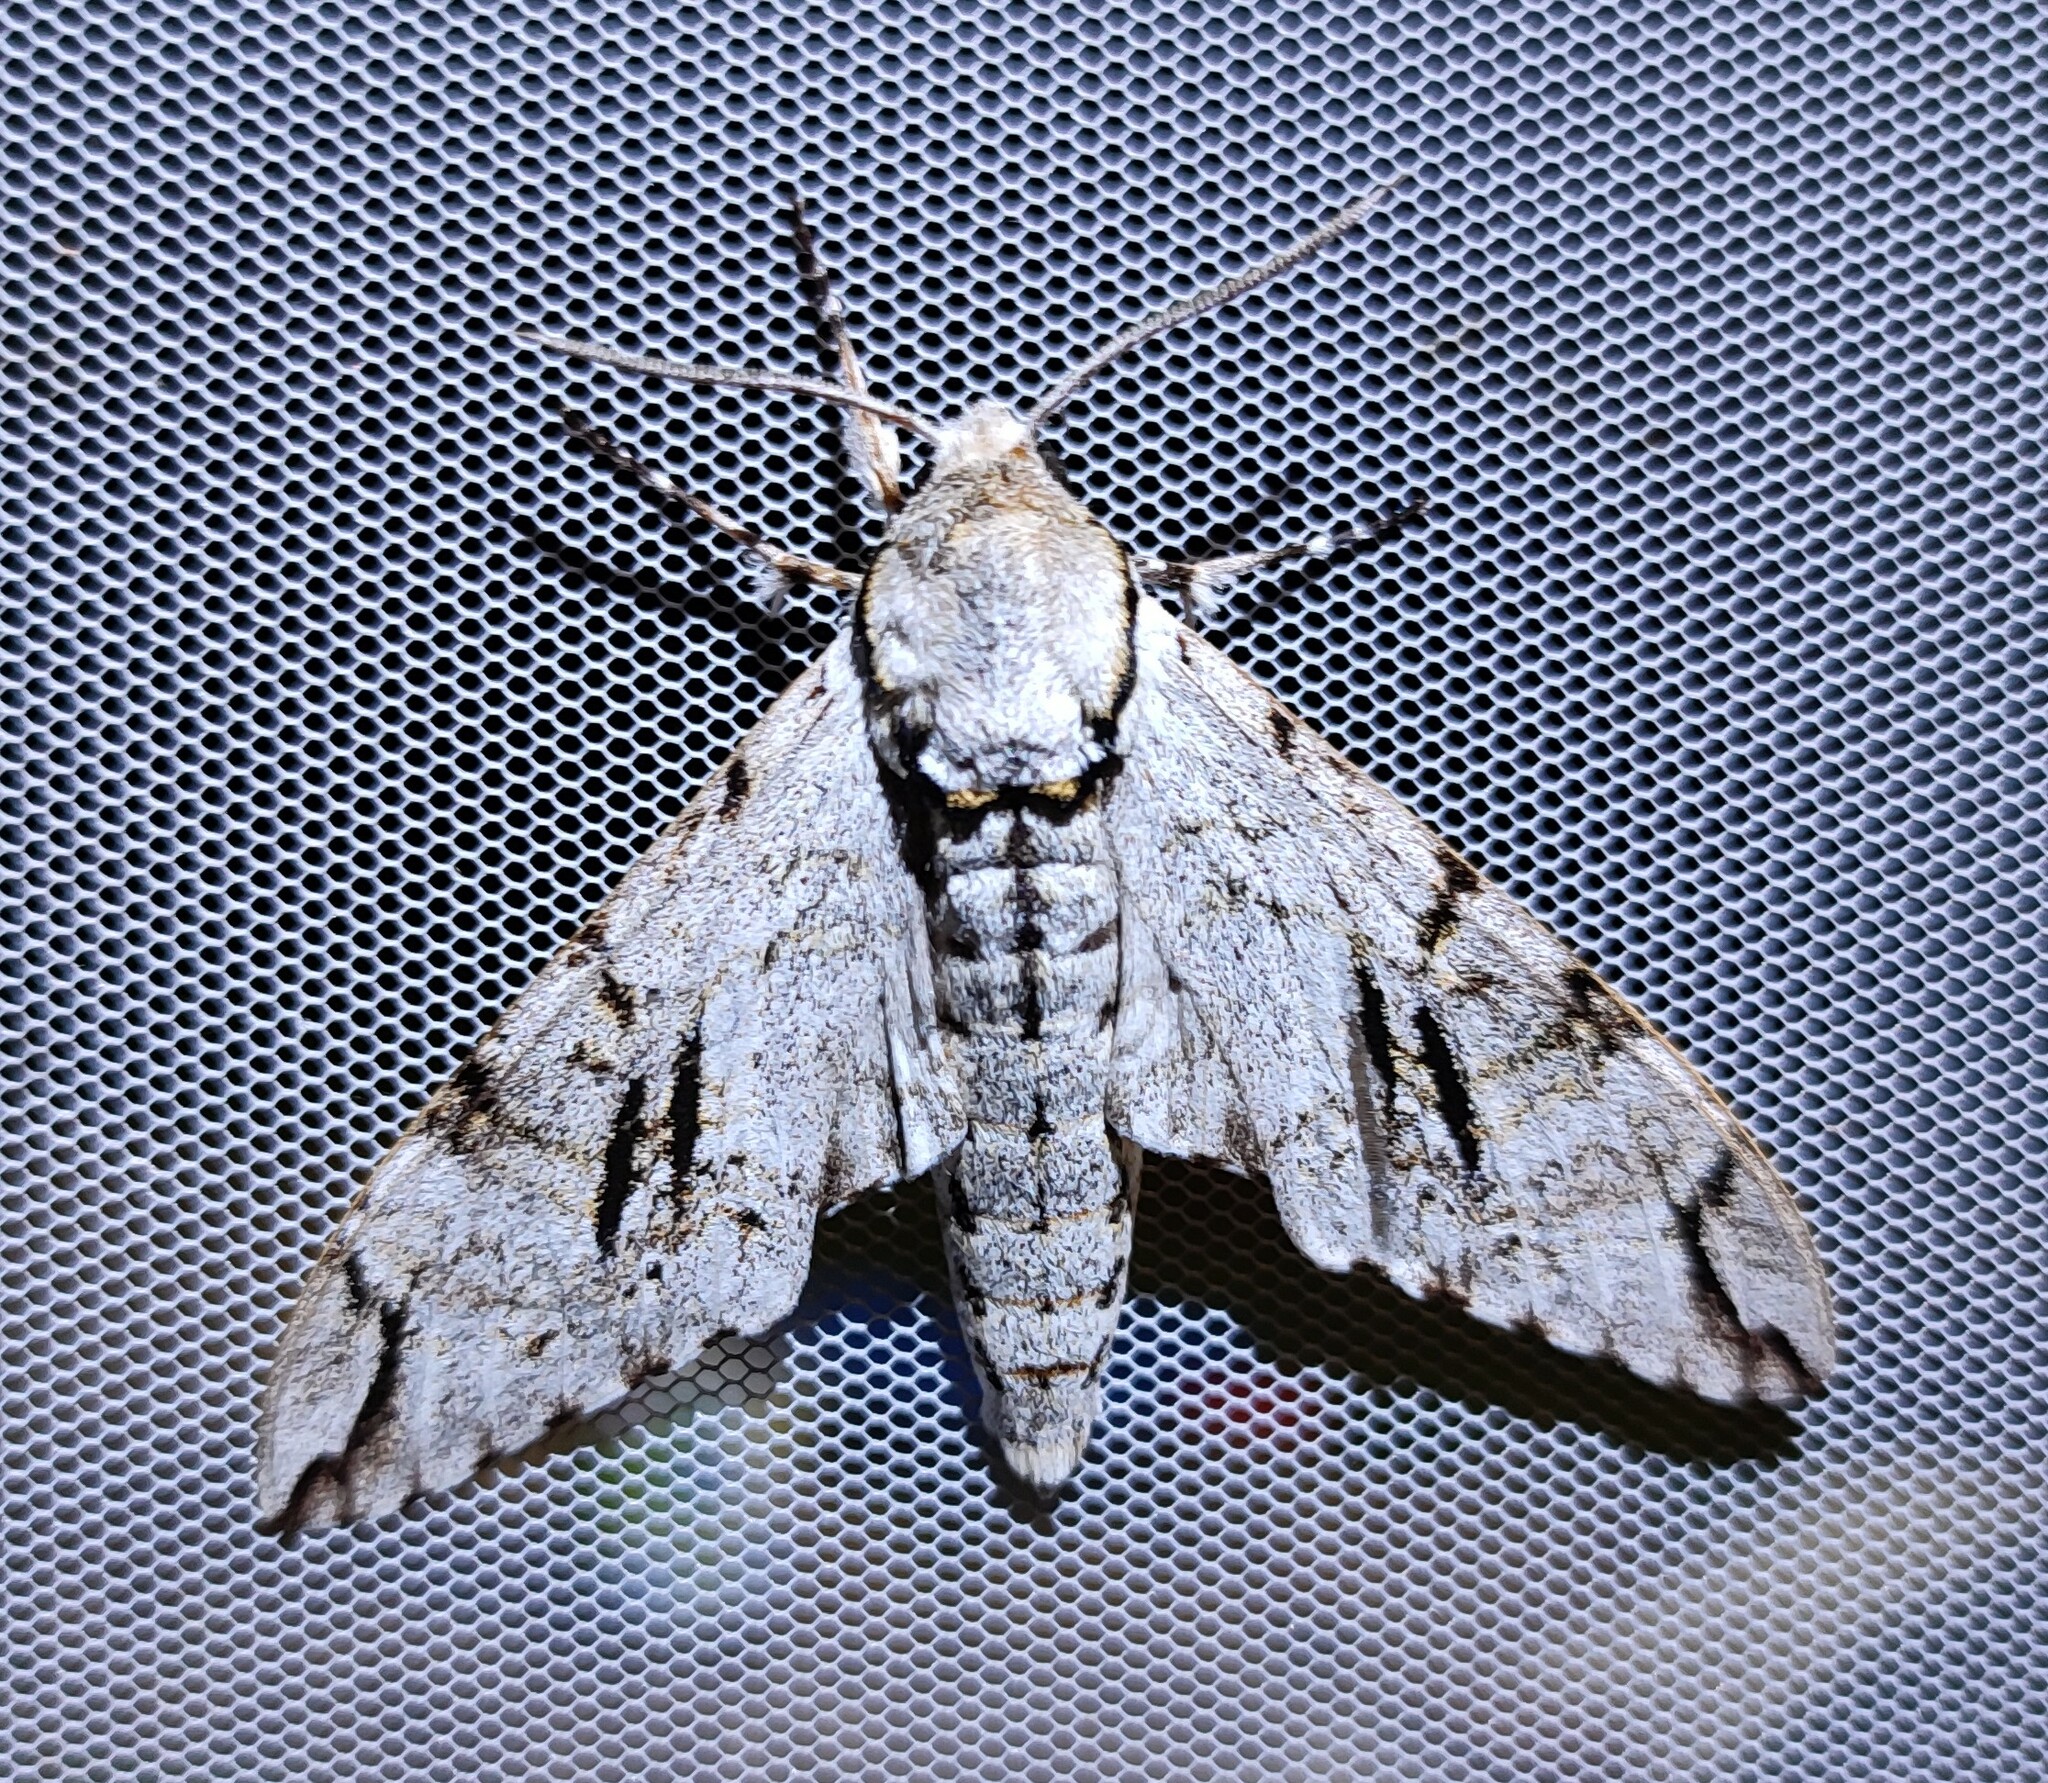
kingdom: Animalia
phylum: Arthropoda
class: Insecta
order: Lepidoptera
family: Sphingidae
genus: Macropoliana
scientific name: Macropoliana gessi
